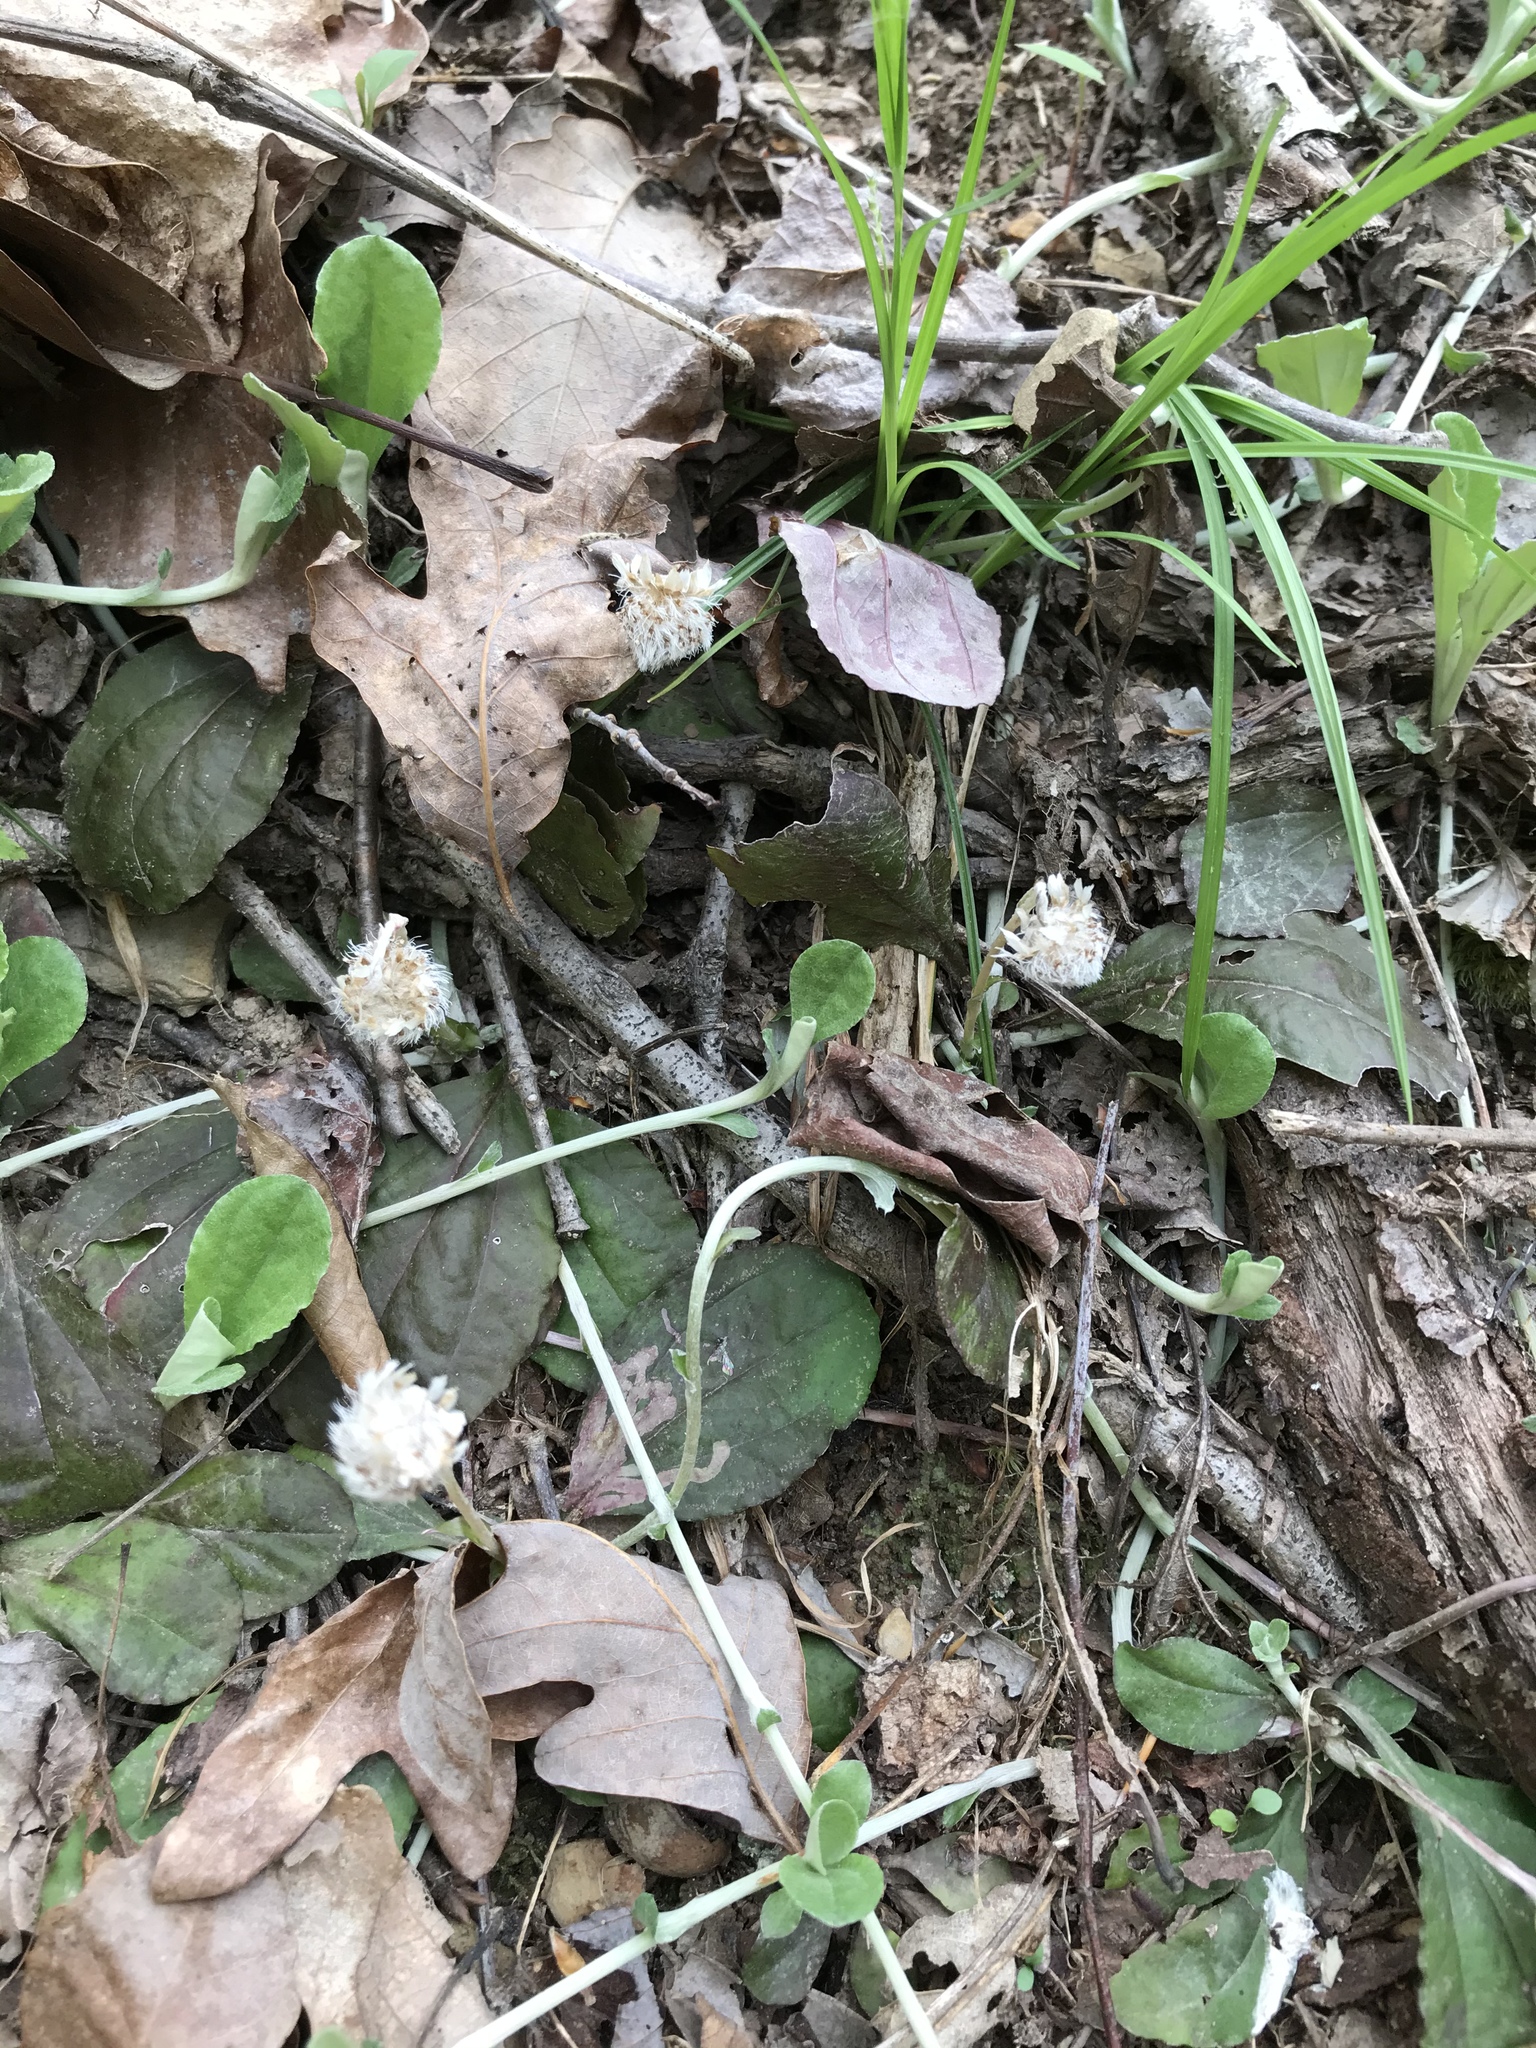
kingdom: Plantae
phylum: Tracheophyta
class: Magnoliopsida
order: Asterales
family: Asteraceae
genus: Antennaria
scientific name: Antennaria solitaria
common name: Single-head pussytoes
